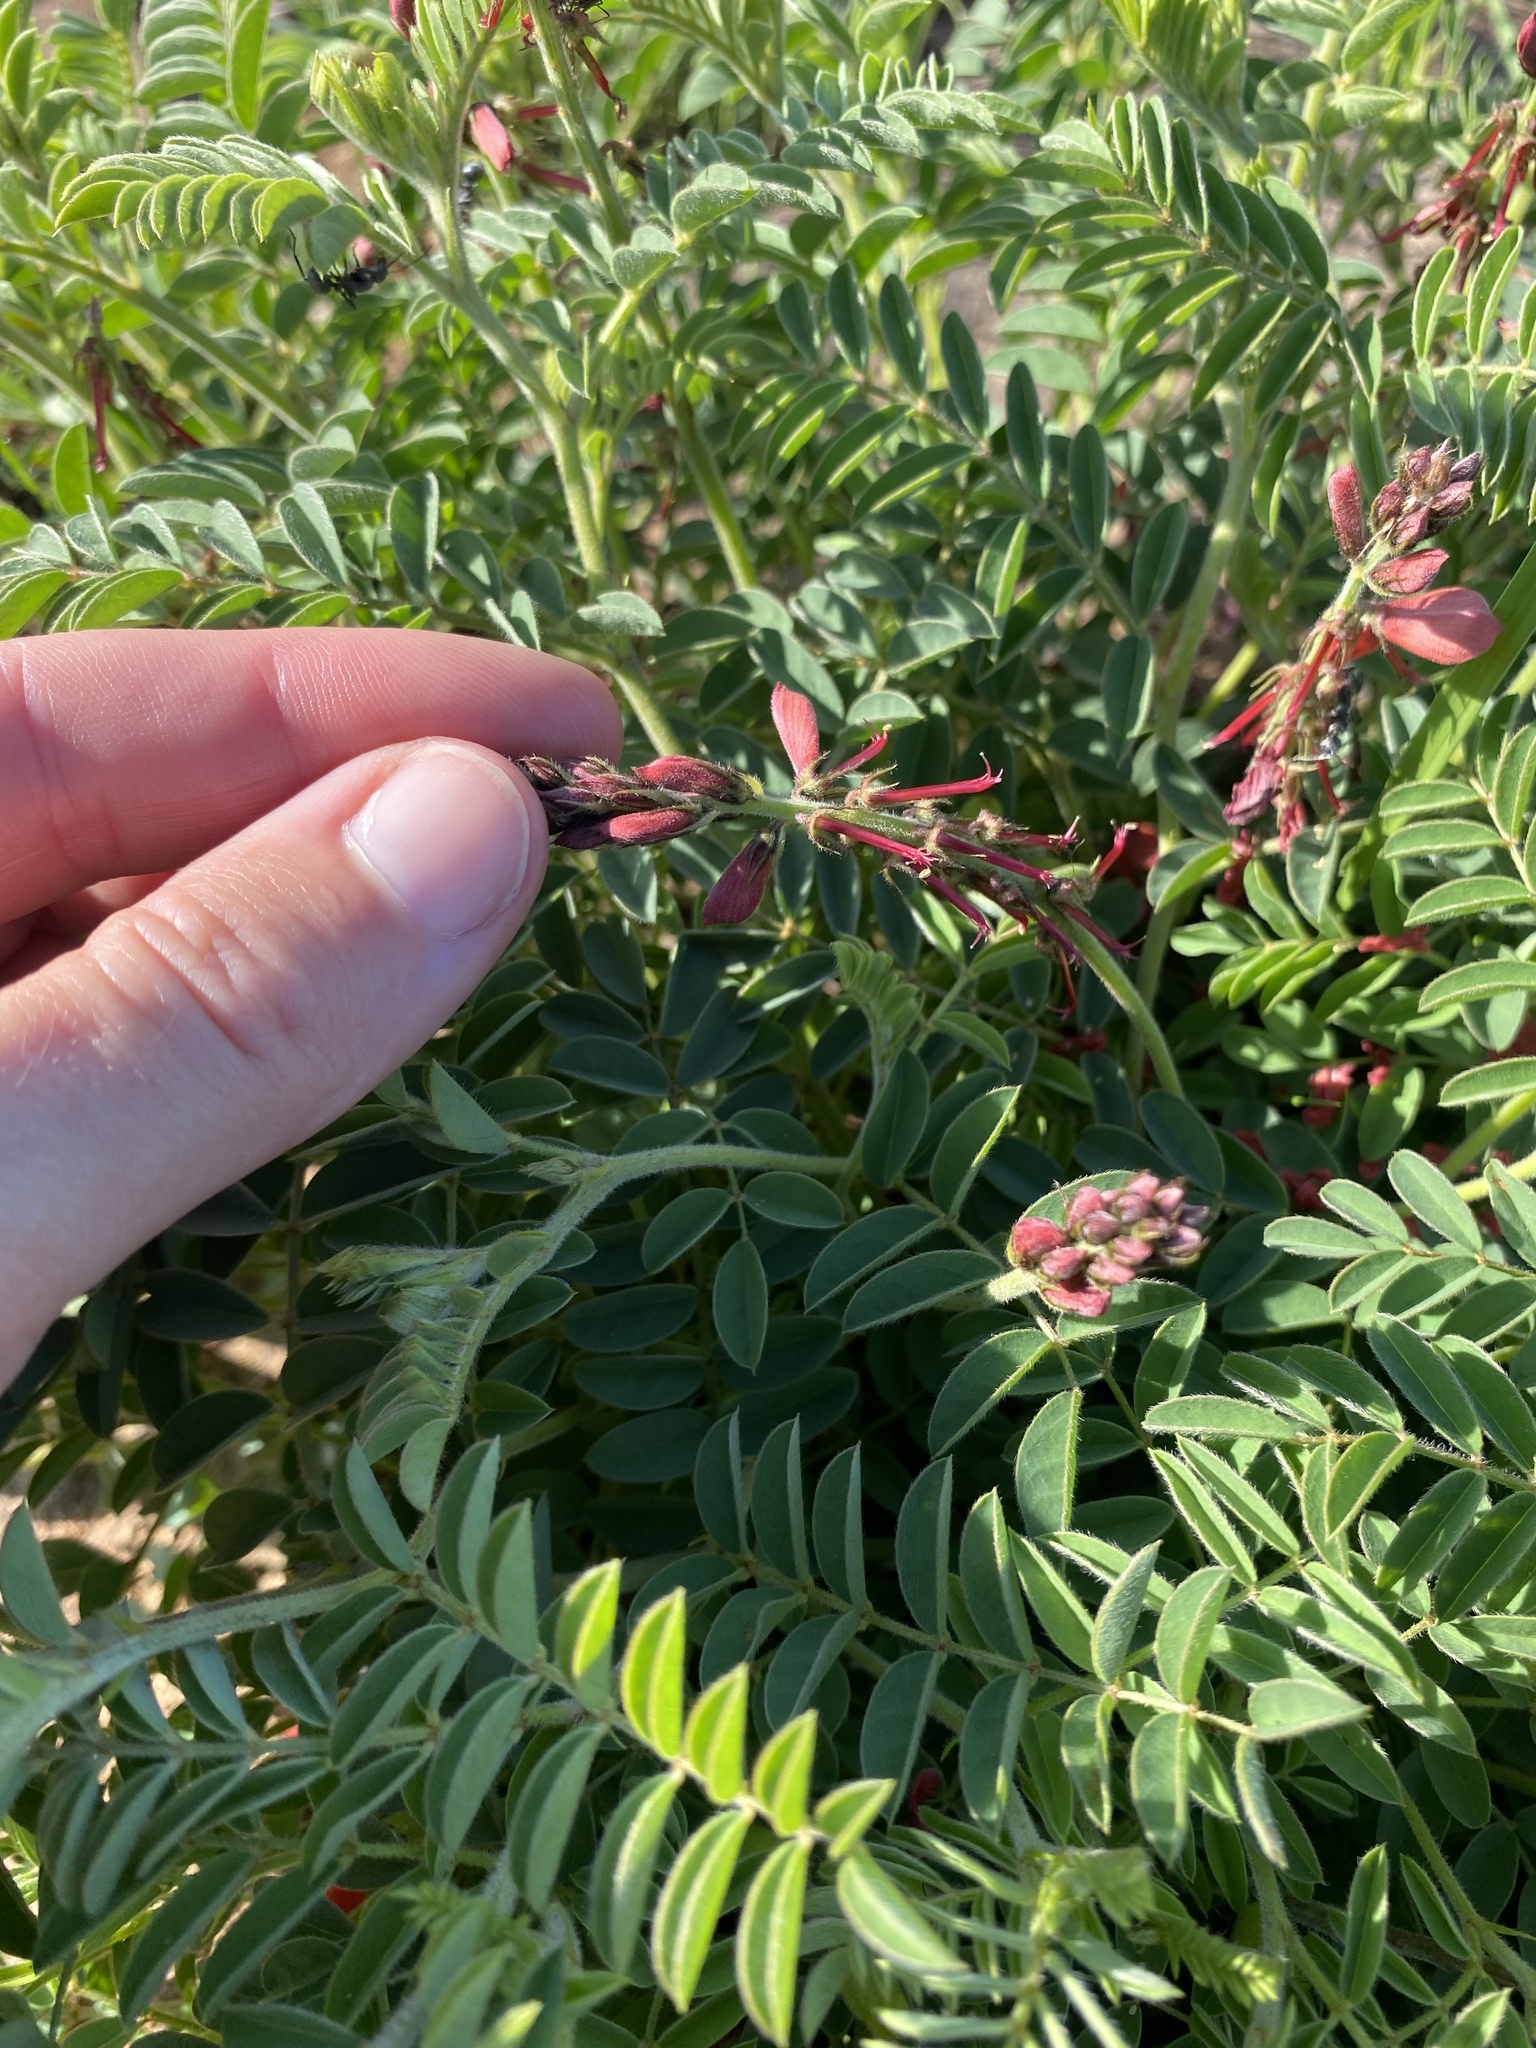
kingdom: Plantae
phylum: Tracheophyta
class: Magnoliopsida
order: Fabales
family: Fabaceae
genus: Indigofera
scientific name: Indigofera williamsonii
